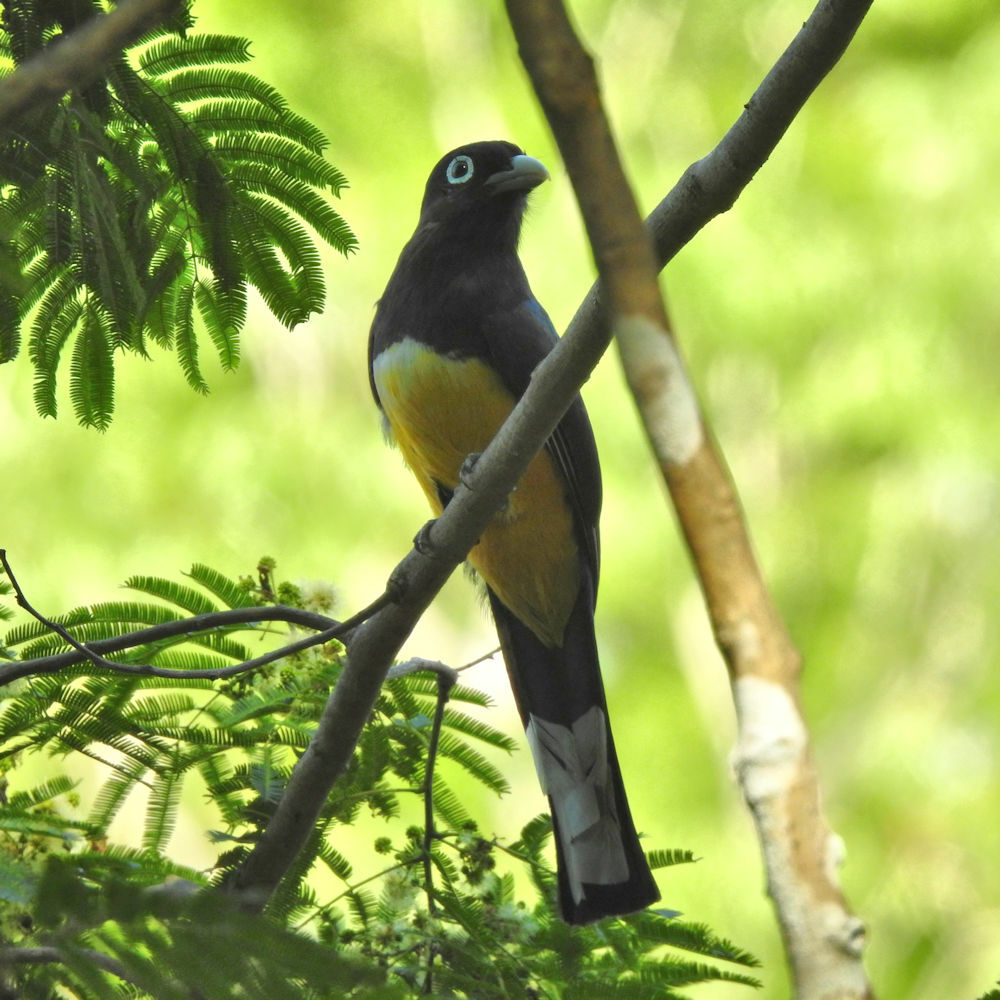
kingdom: Animalia
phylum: Chordata
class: Aves
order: Trogoniformes
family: Trogonidae
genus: Trogon
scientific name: Trogon melanocephalus
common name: Black-headed trogon
